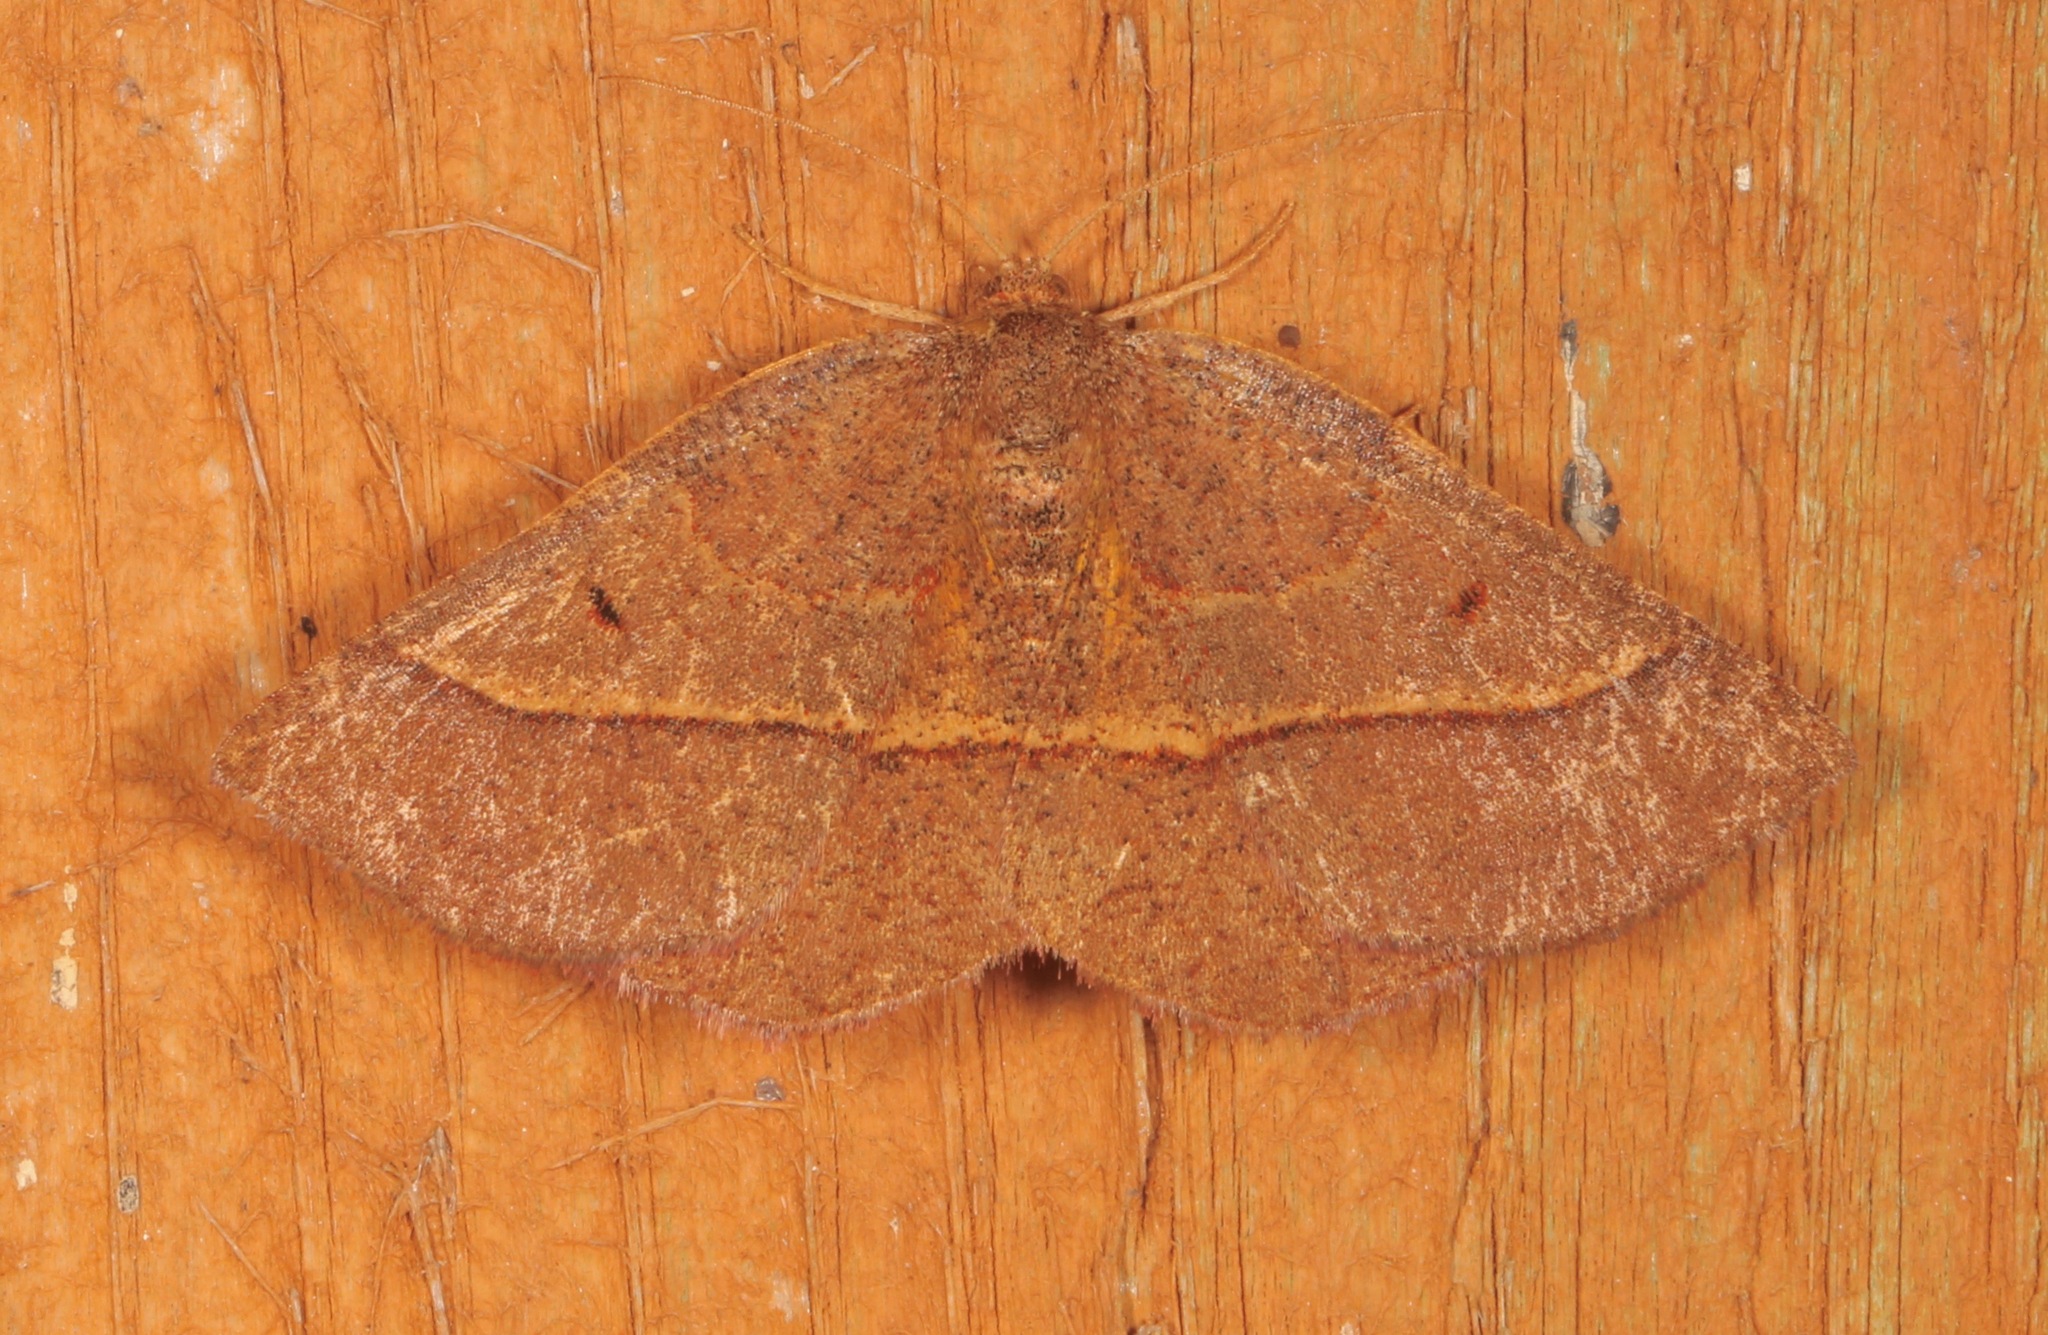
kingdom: Animalia
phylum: Arthropoda
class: Insecta
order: Lepidoptera
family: Geometridae
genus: Metarranthis
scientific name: Metarranthis obfirmaria
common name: Yellow-washed metarranthis
